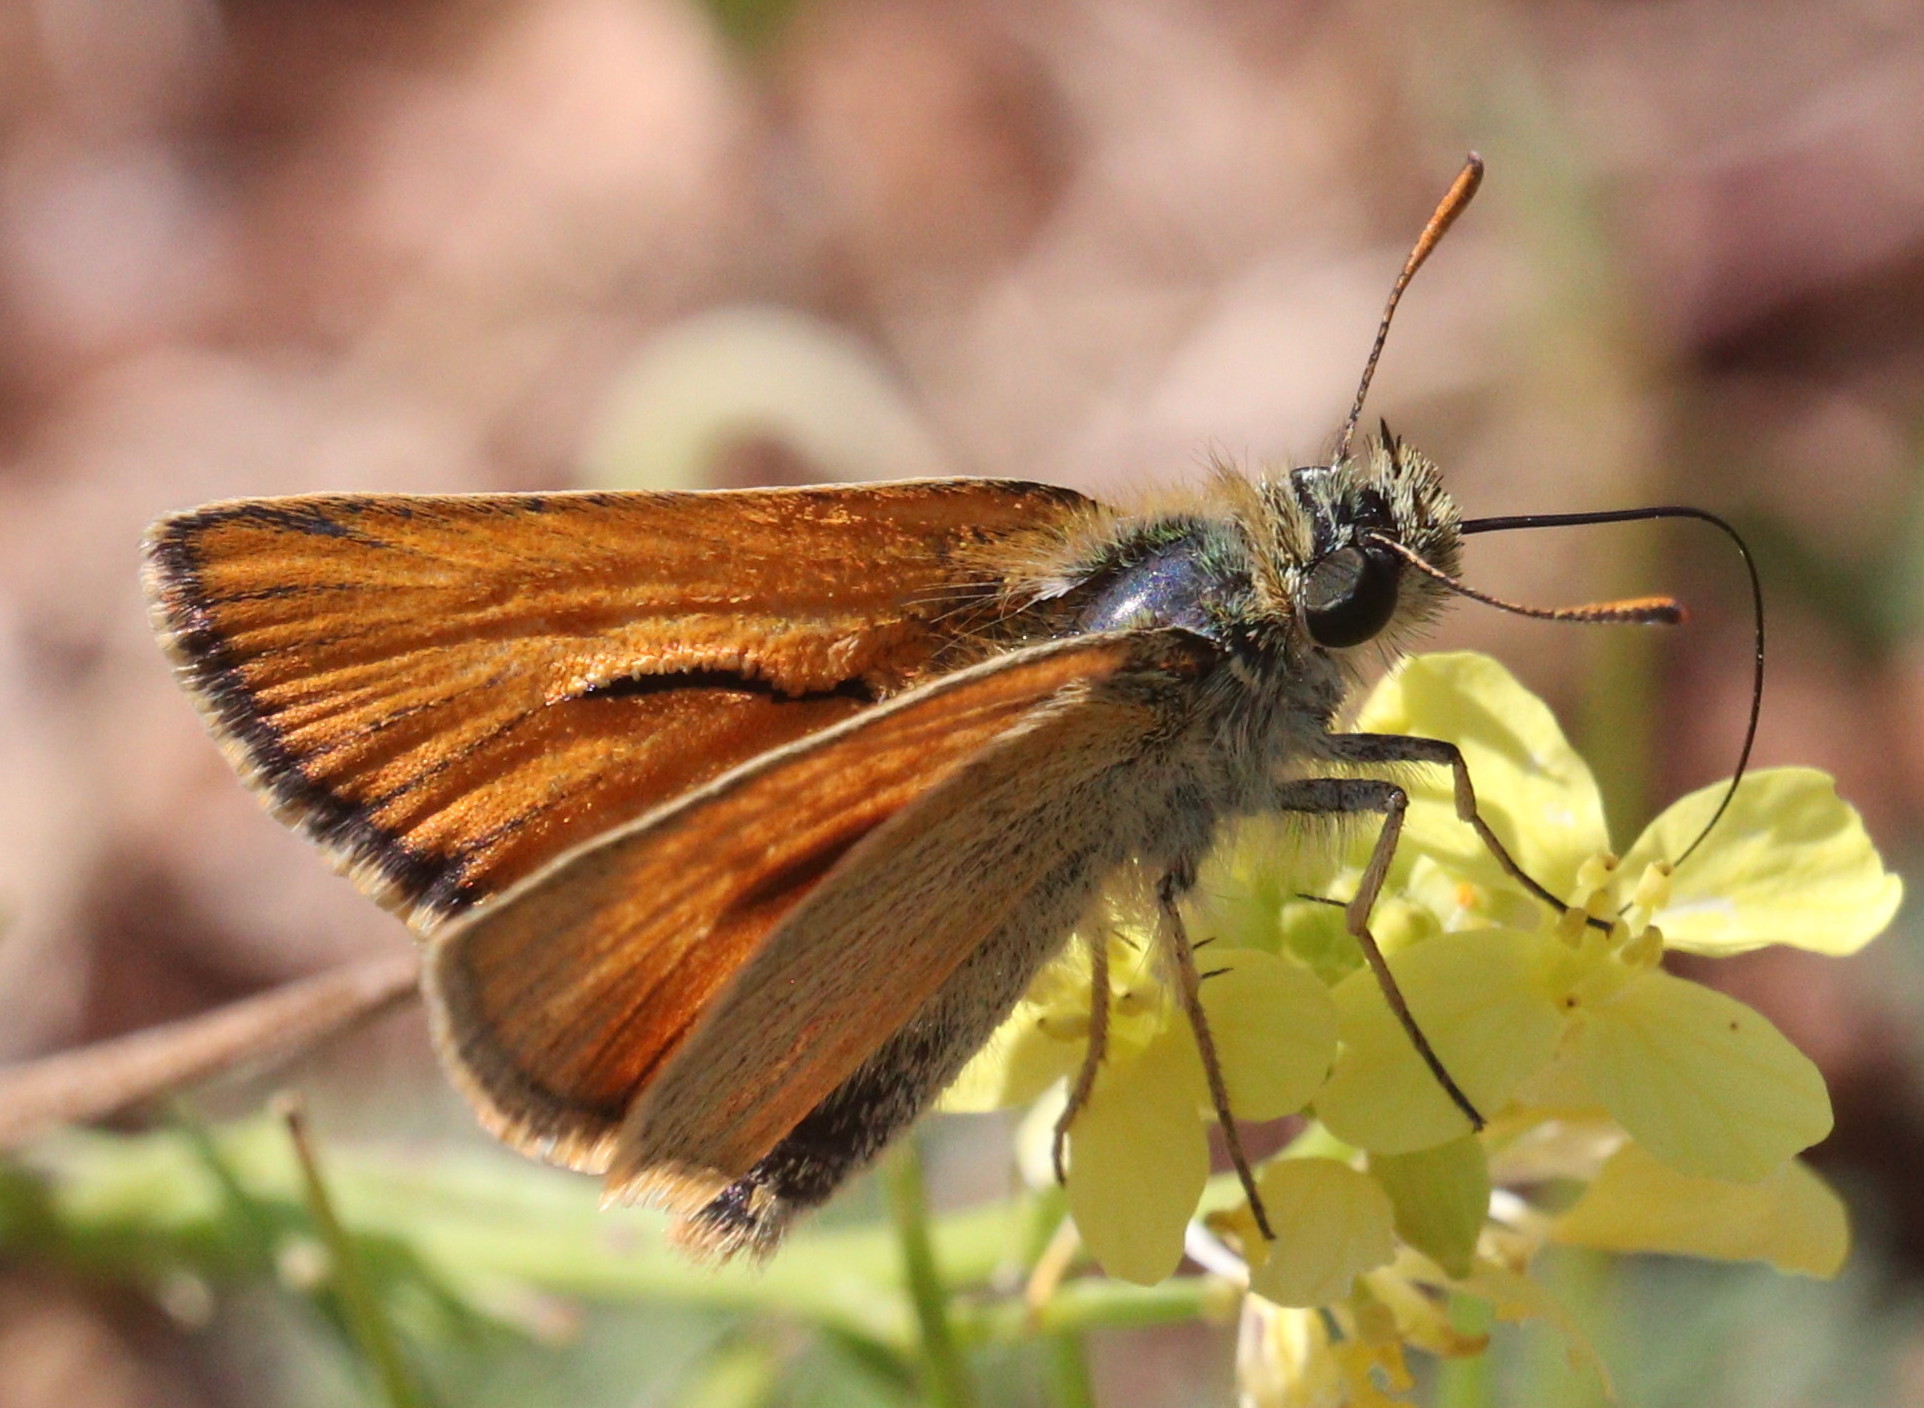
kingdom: Animalia
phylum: Arthropoda
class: Insecta
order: Lepidoptera
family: Hesperiidae
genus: Thymelicus
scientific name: Thymelicus sylvestris
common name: Small skipper
